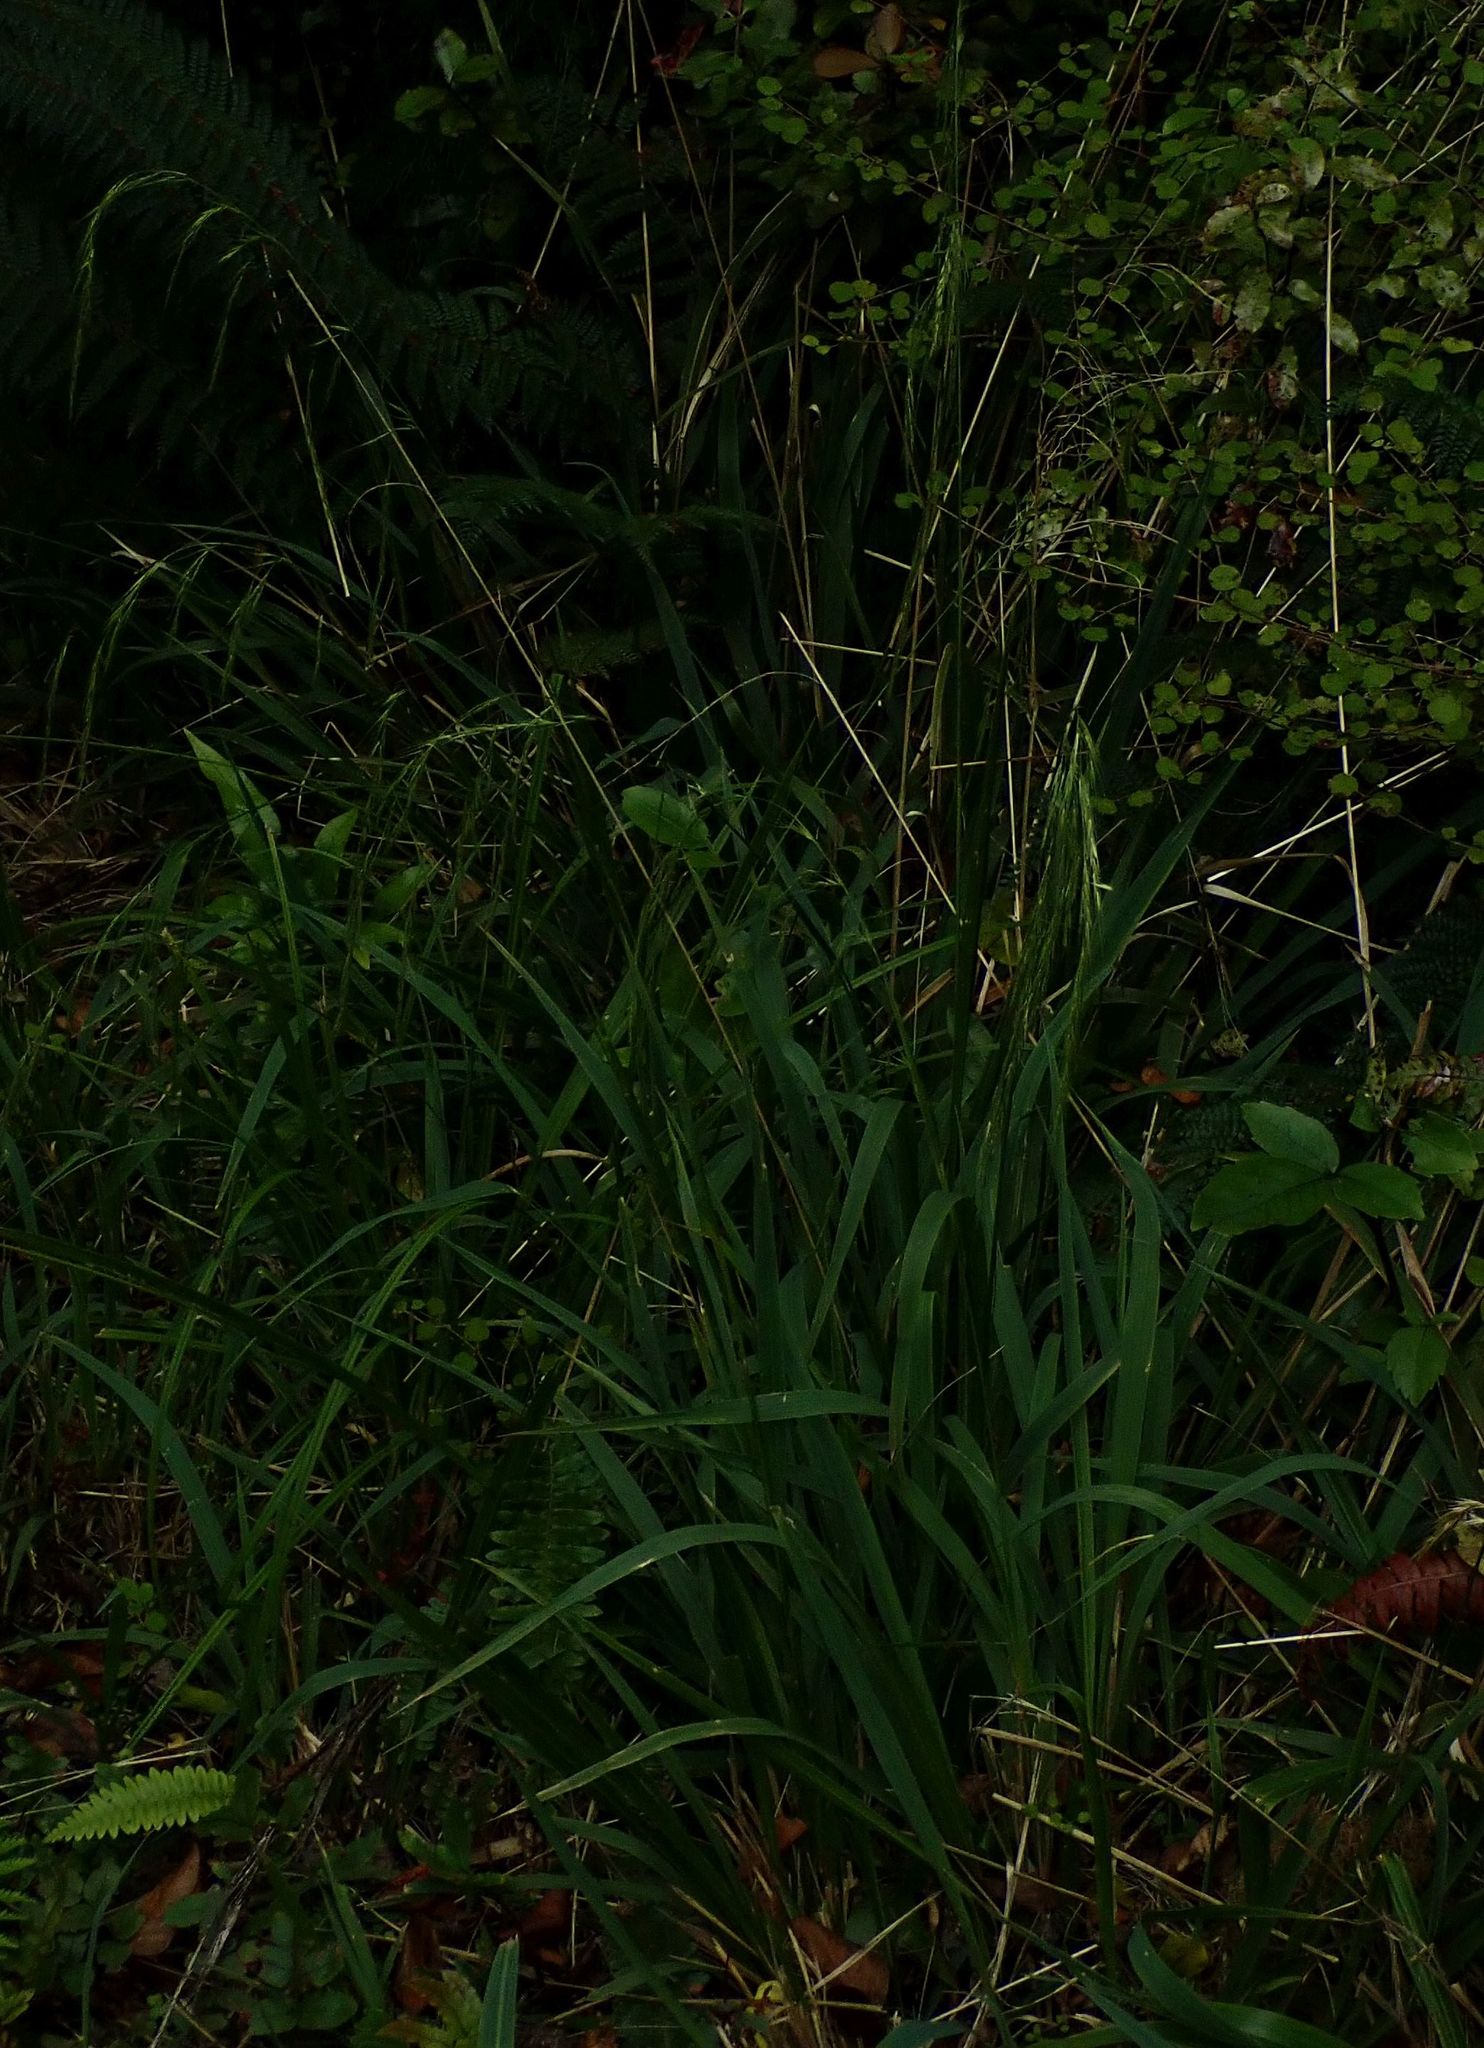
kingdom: Plantae
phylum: Tracheophyta
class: Liliopsida
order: Poales
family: Poaceae
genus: Ehrharta
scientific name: Ehrharta diplax
